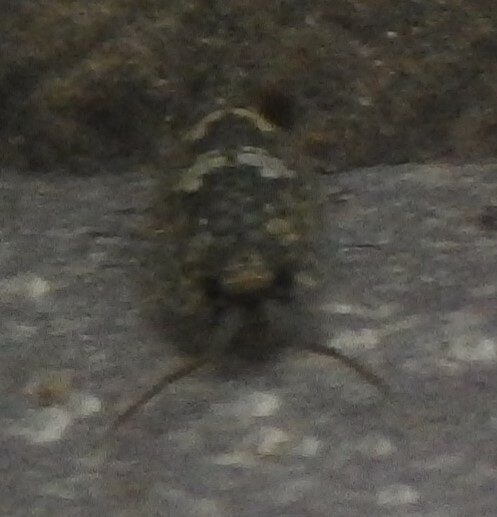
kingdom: Animalia
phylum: Arthropoda
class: Malacostraca
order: Isopoda
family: Ligiidae
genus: Ligia
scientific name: Ligia oceanica
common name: Sea slater
